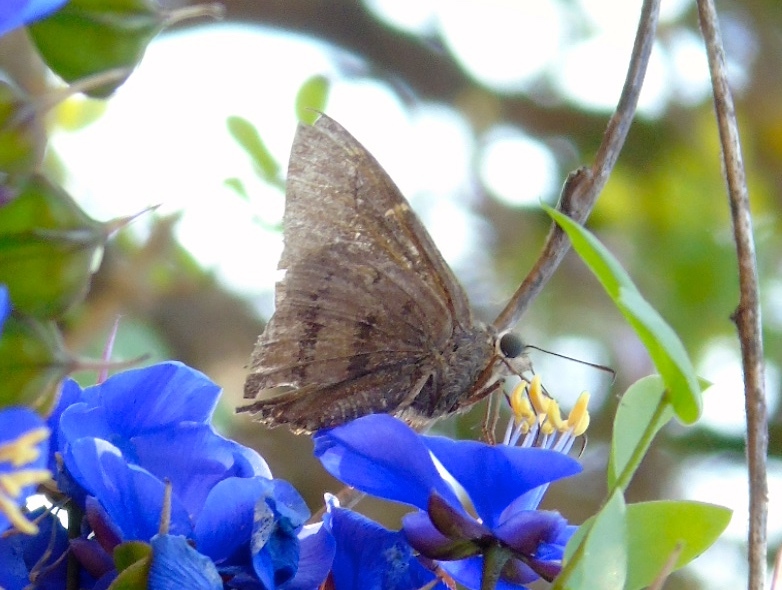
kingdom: Animalia
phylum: Arthropoda
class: Insecta
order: Lepidoptera
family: Hesperiidae
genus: Urbanus
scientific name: Urbanus procne
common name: Brown longtail
